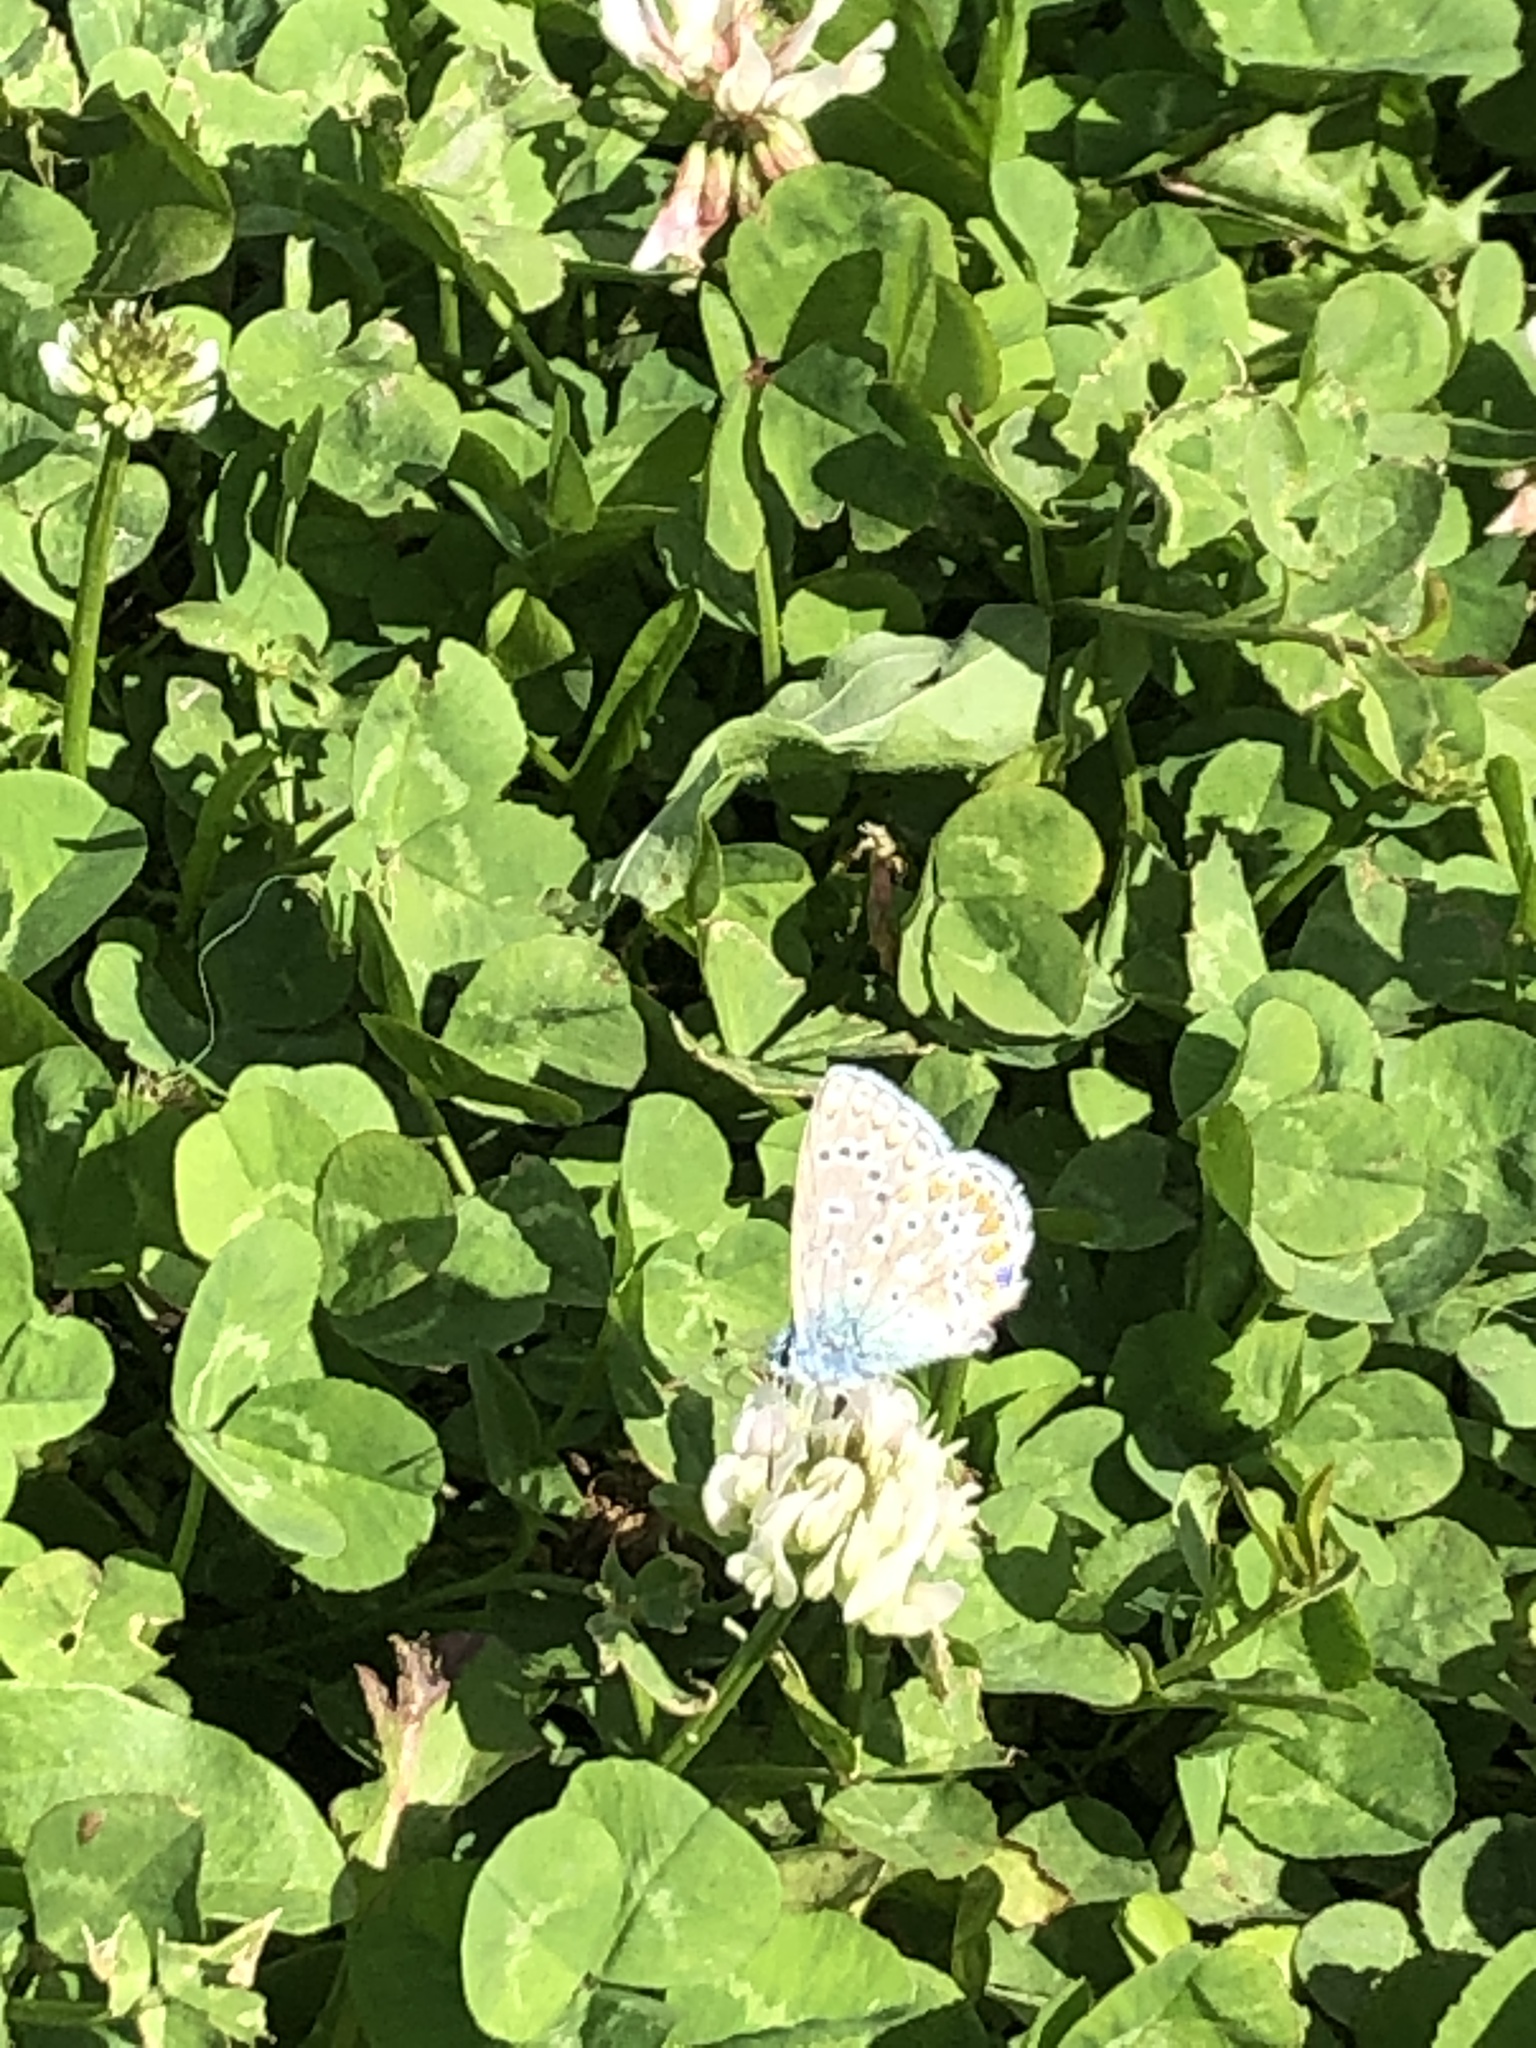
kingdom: Animalia
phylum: Arthropoda
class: Insecta
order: Lepidoptera
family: Lycaenidae
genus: Polyommatus
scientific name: Polyommatus icarus
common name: Common blue
